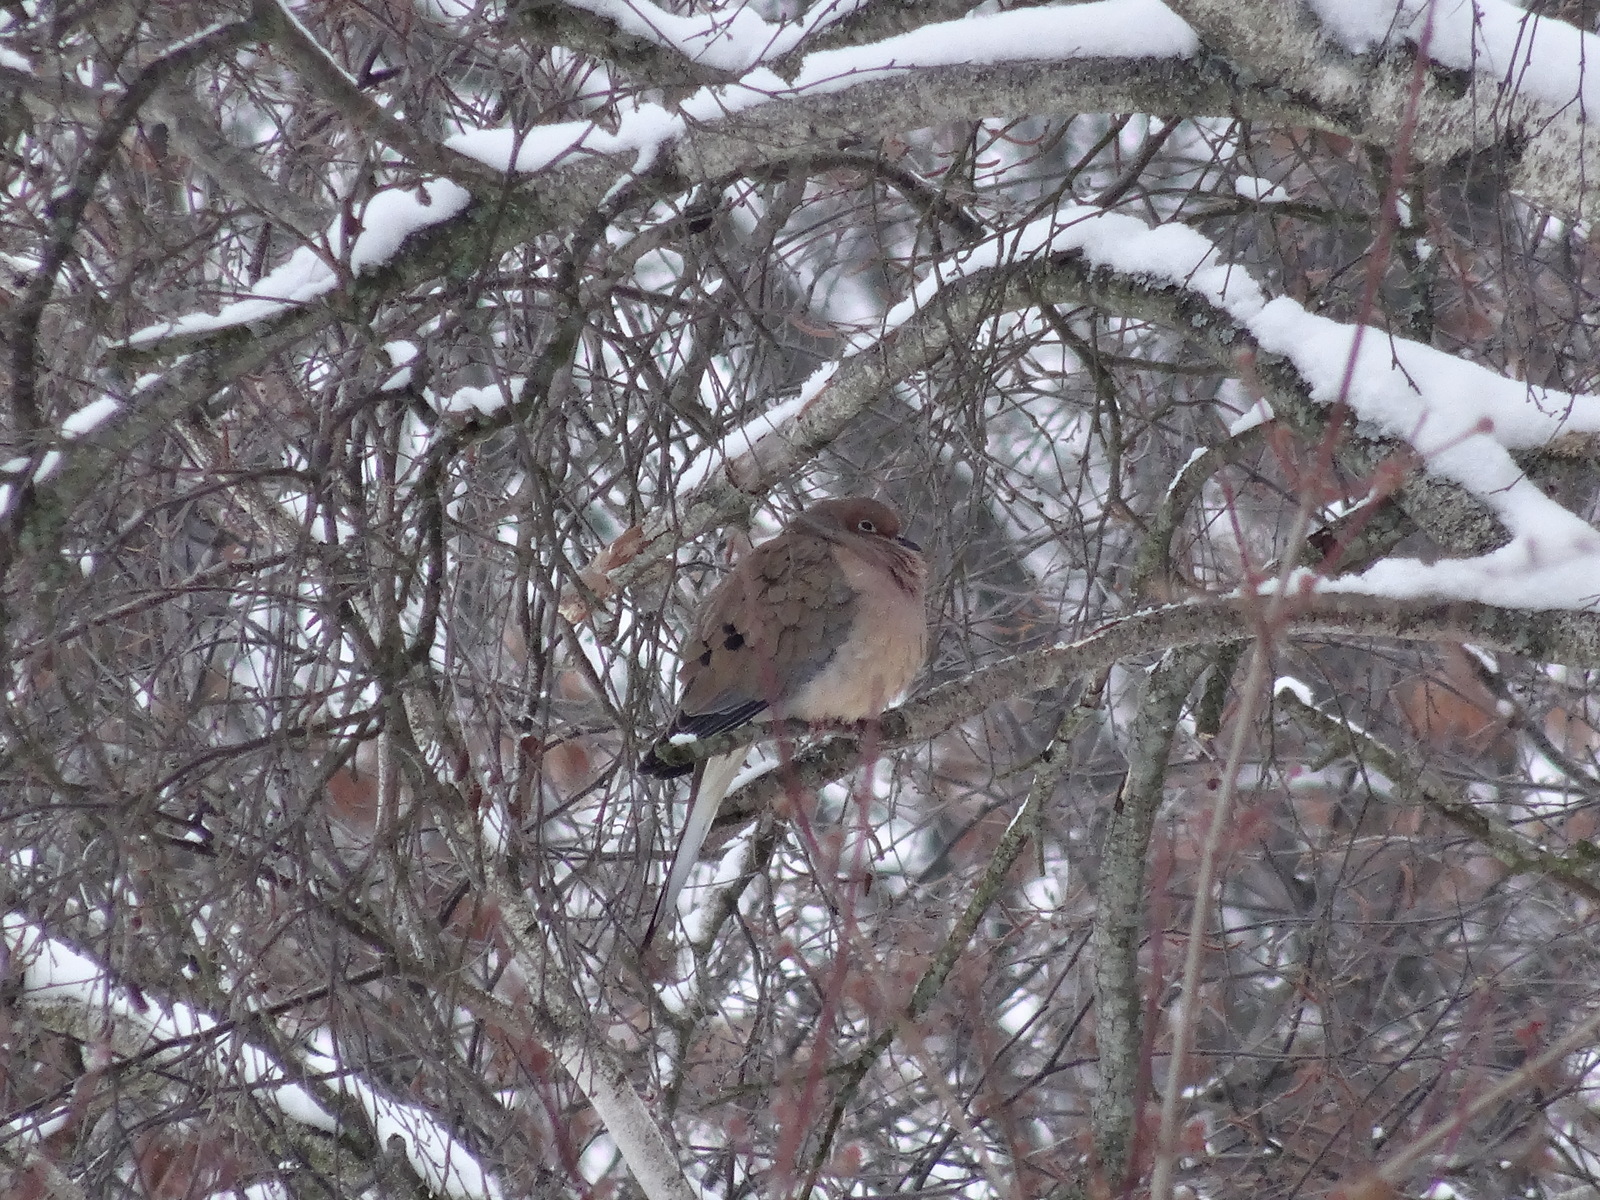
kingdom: Animalia
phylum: Chordata
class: Aves
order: Columbiformes
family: Columbidae
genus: Zenaida
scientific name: Zenaida macroura
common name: Mourning dove
